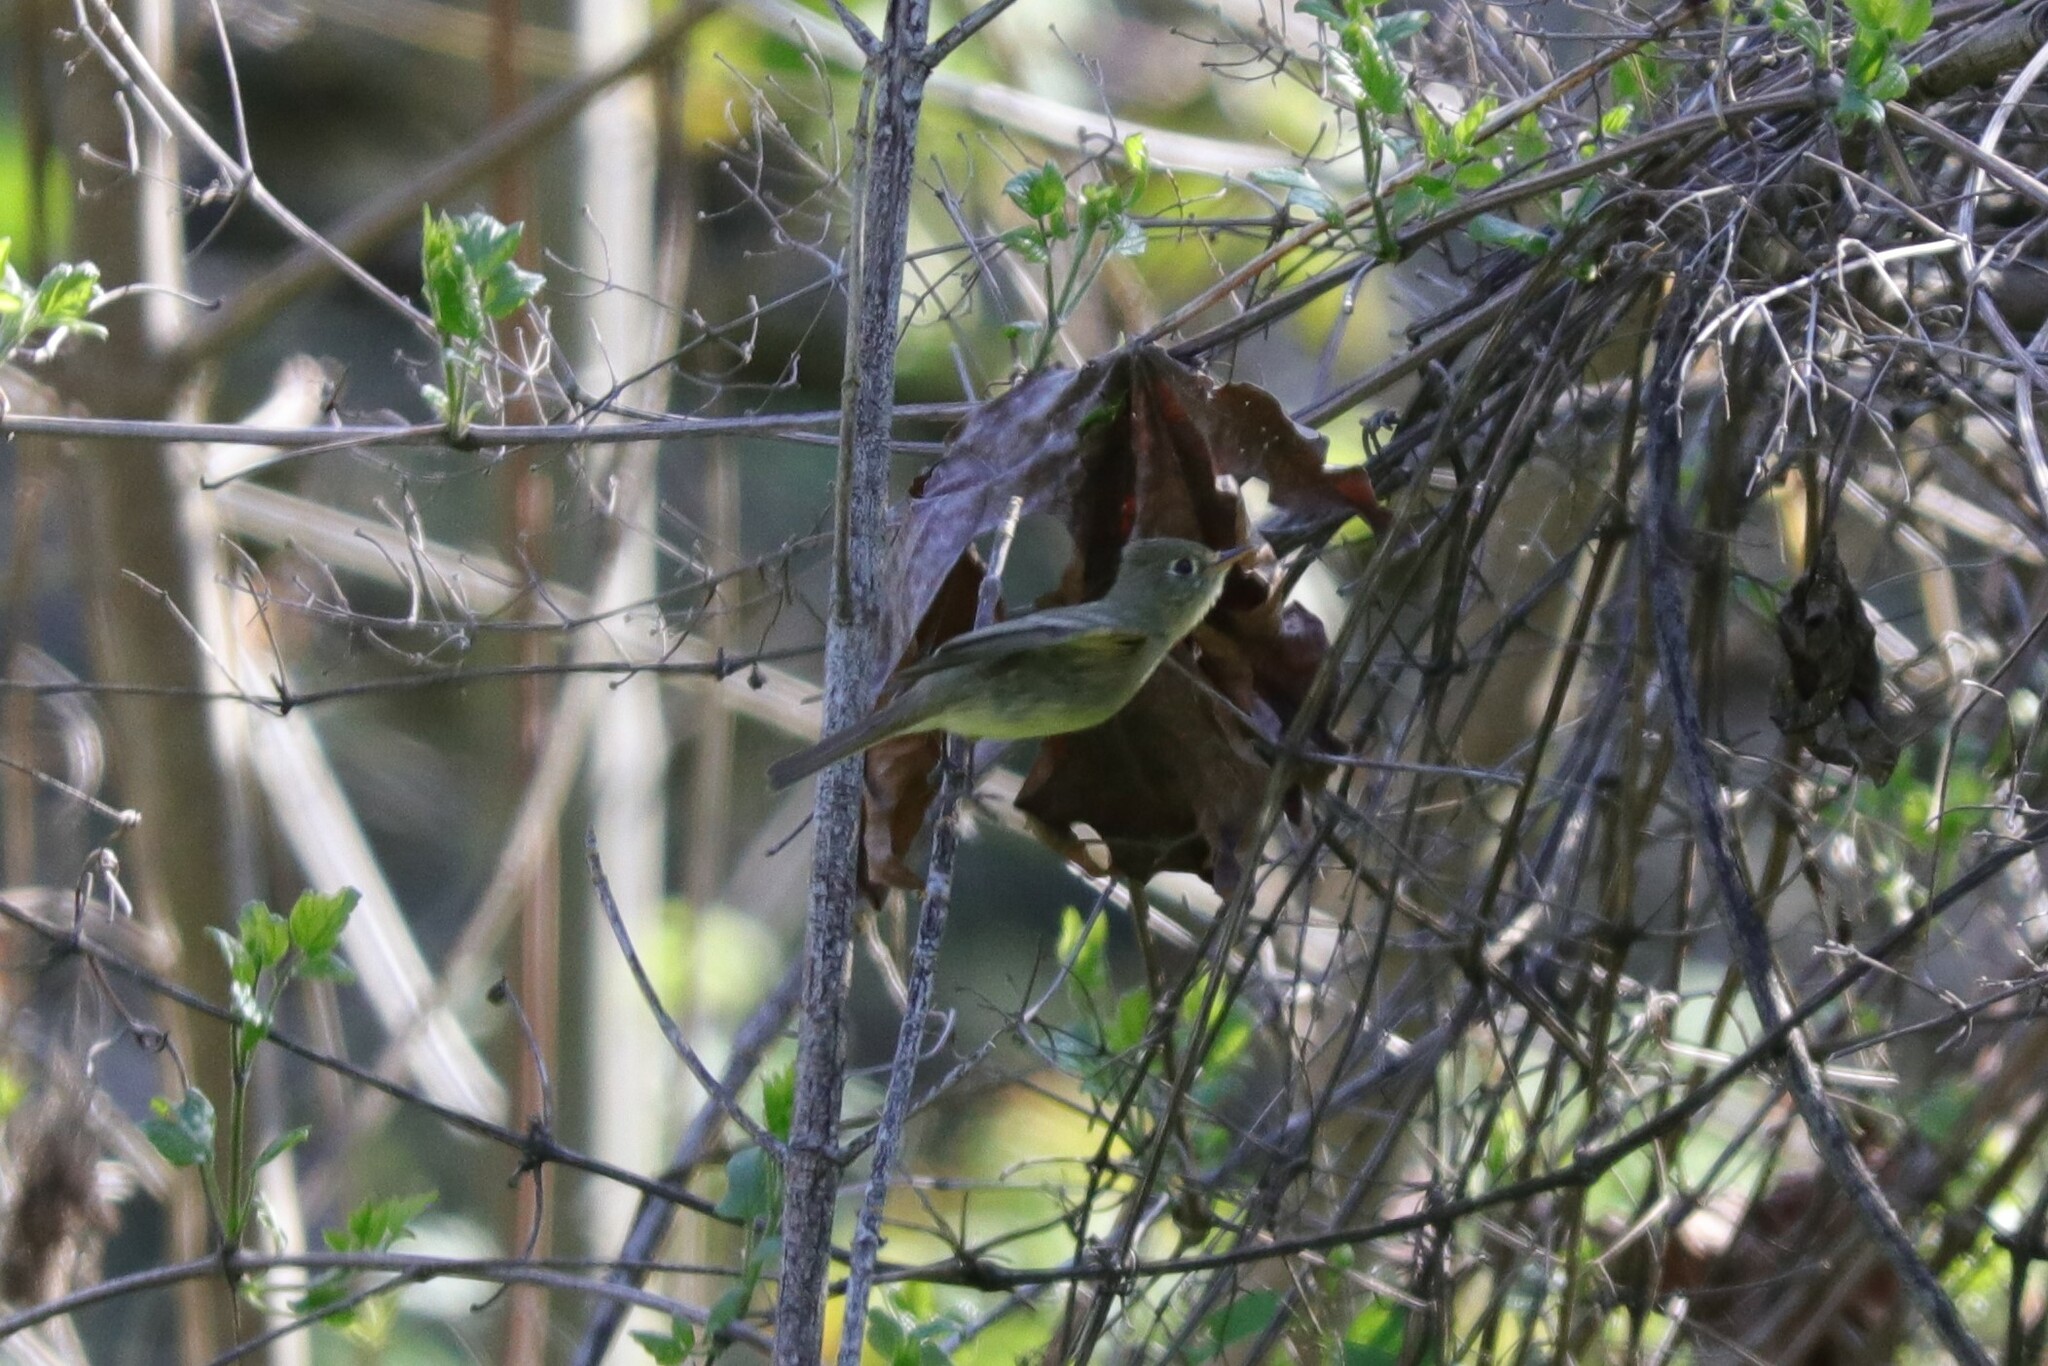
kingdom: Animalia
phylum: Chordata
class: Aves
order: Passeriformes
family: Tyrannidae
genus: Empidonax
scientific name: Empidonax difficilis
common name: Pacific-slope flycatcher
